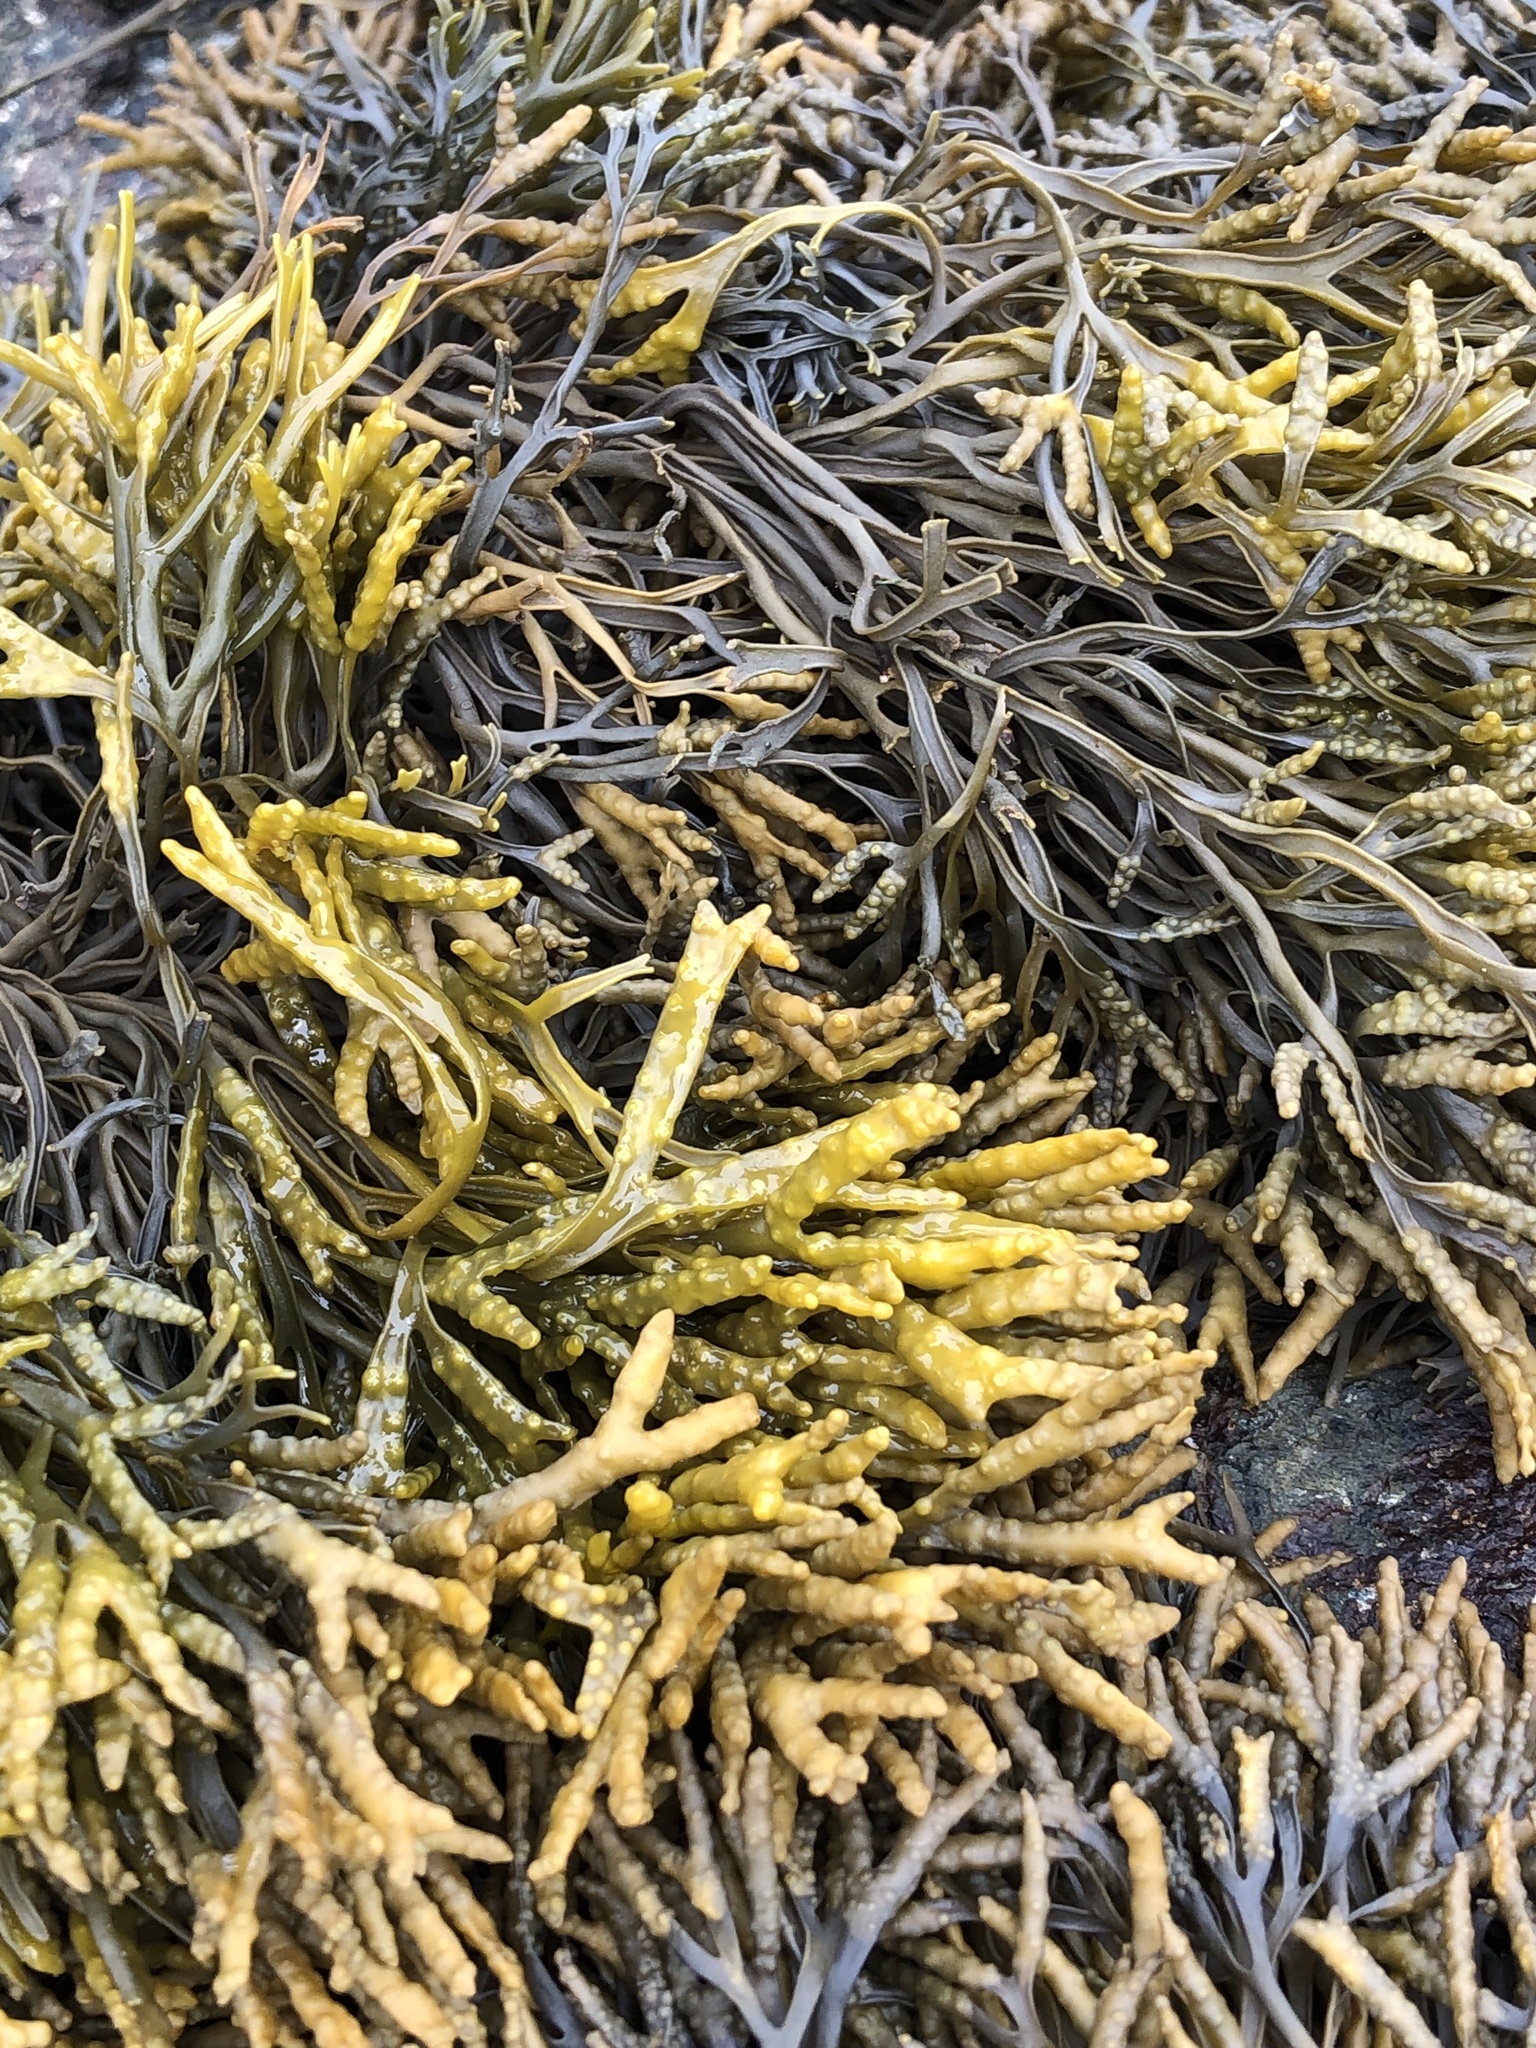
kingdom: Chromista
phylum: Ochrophyta
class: Phaeophyceae
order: Fucales
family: Fucaceae
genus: Pelvetia
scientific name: Pelvetia canaliculata
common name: Channelled wrack
